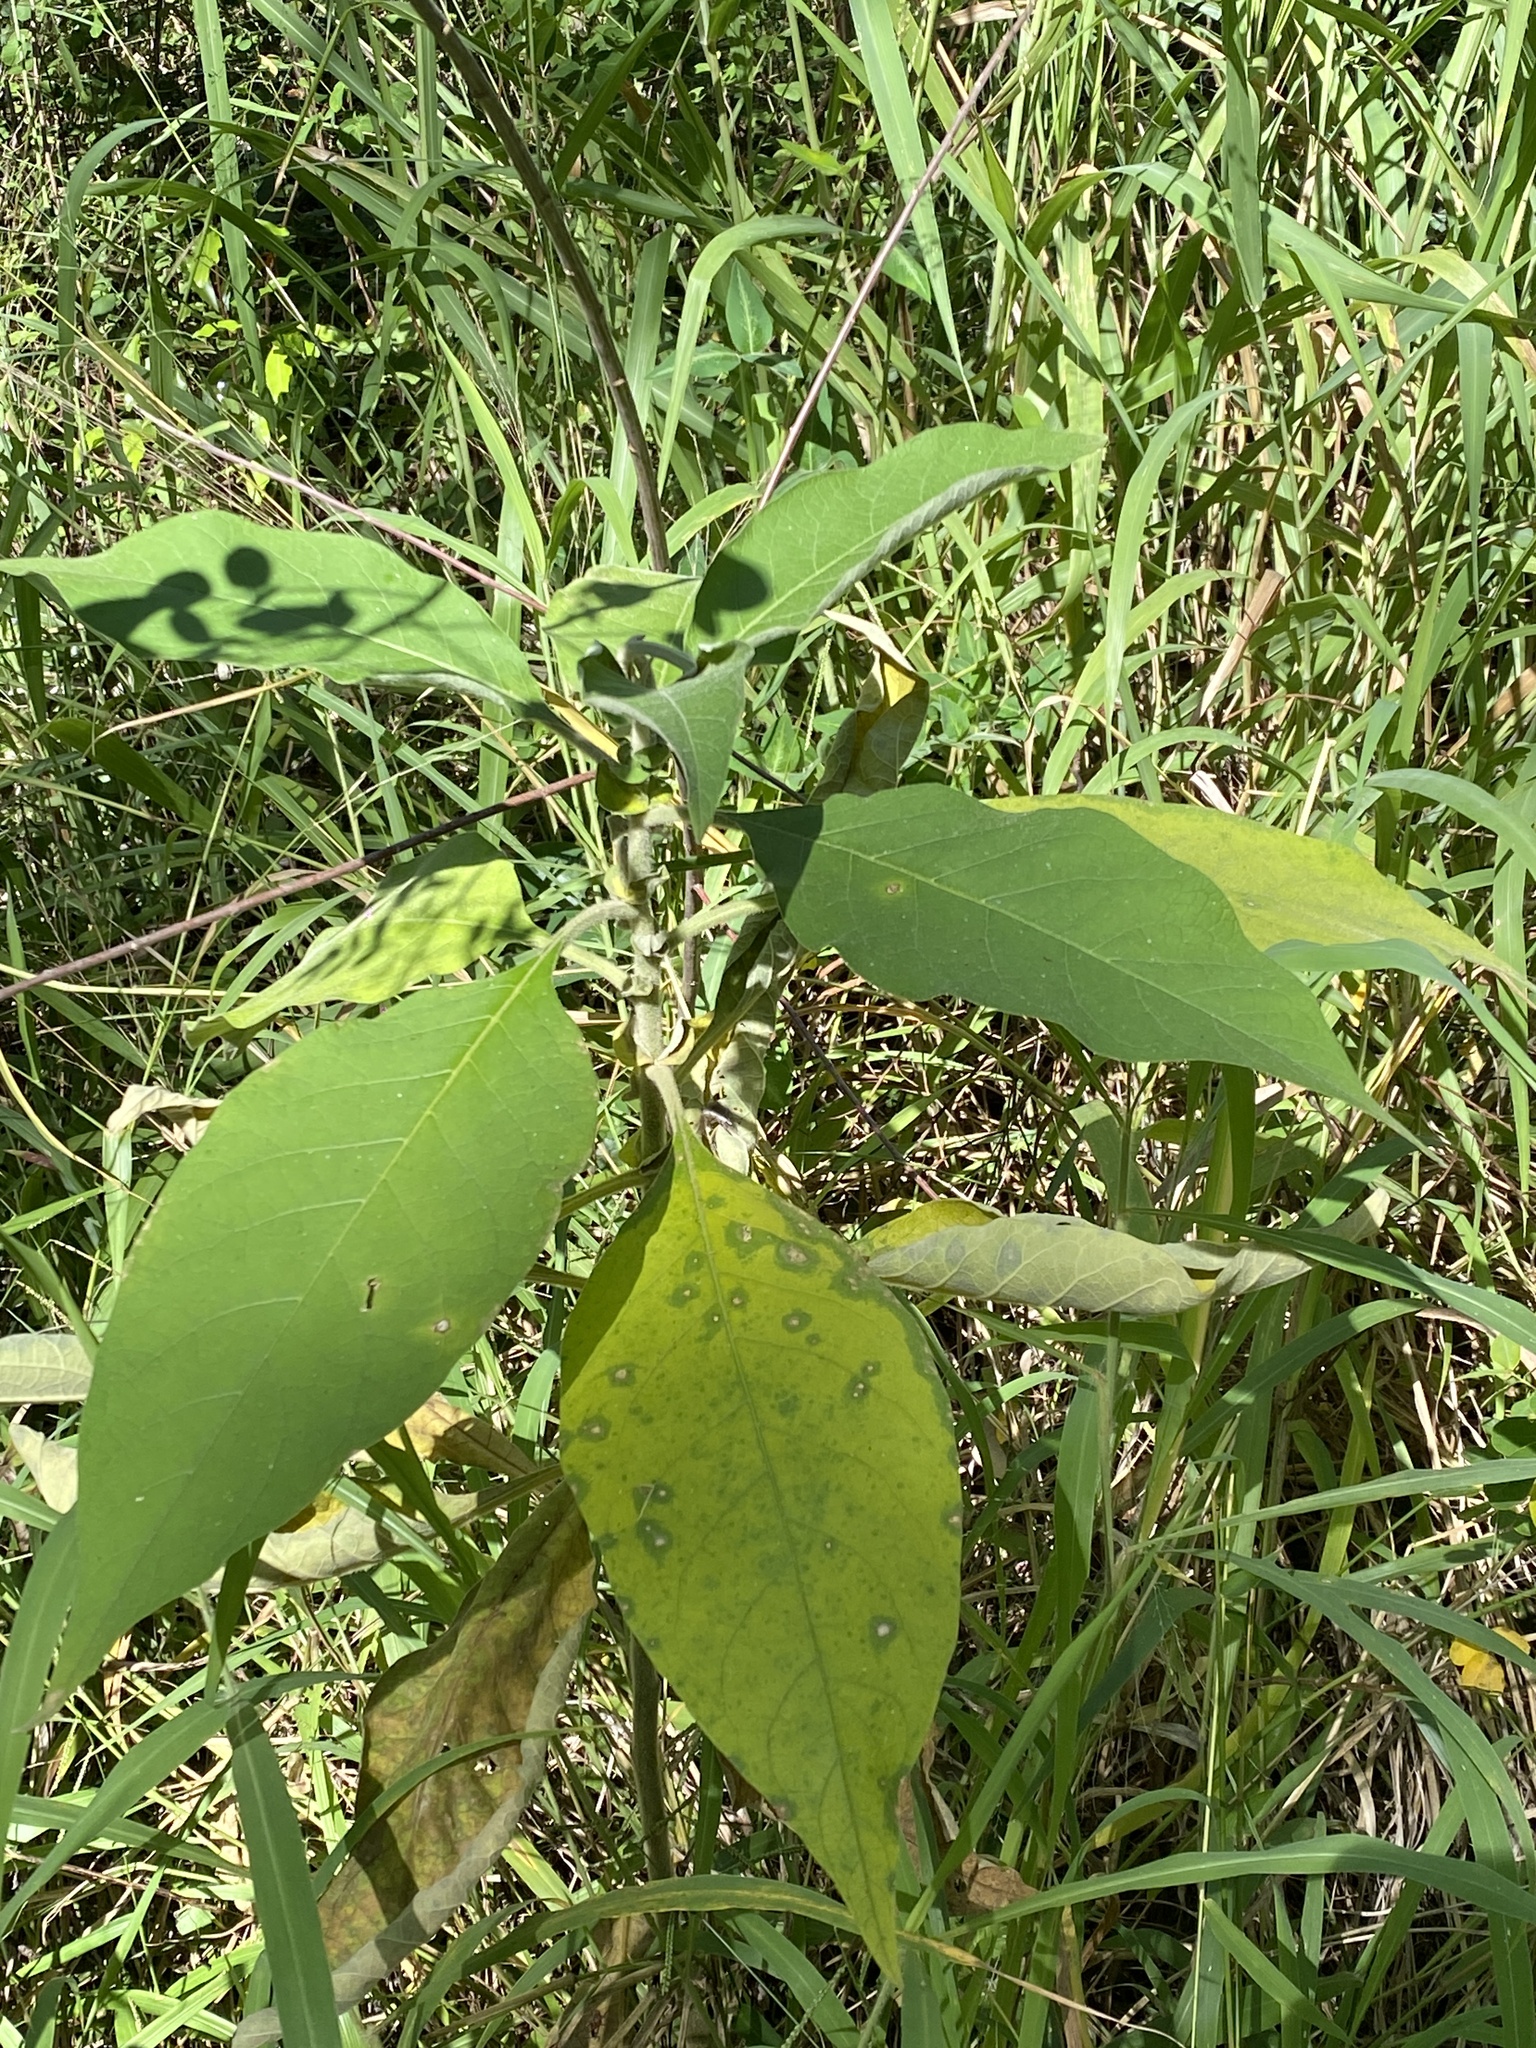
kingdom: Plantae
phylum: Tracheophyta
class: Magnoliopsida
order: Solanales
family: Solanaceae
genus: Solanum
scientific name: Solanum mauritianum
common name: Earleaf nightshade
